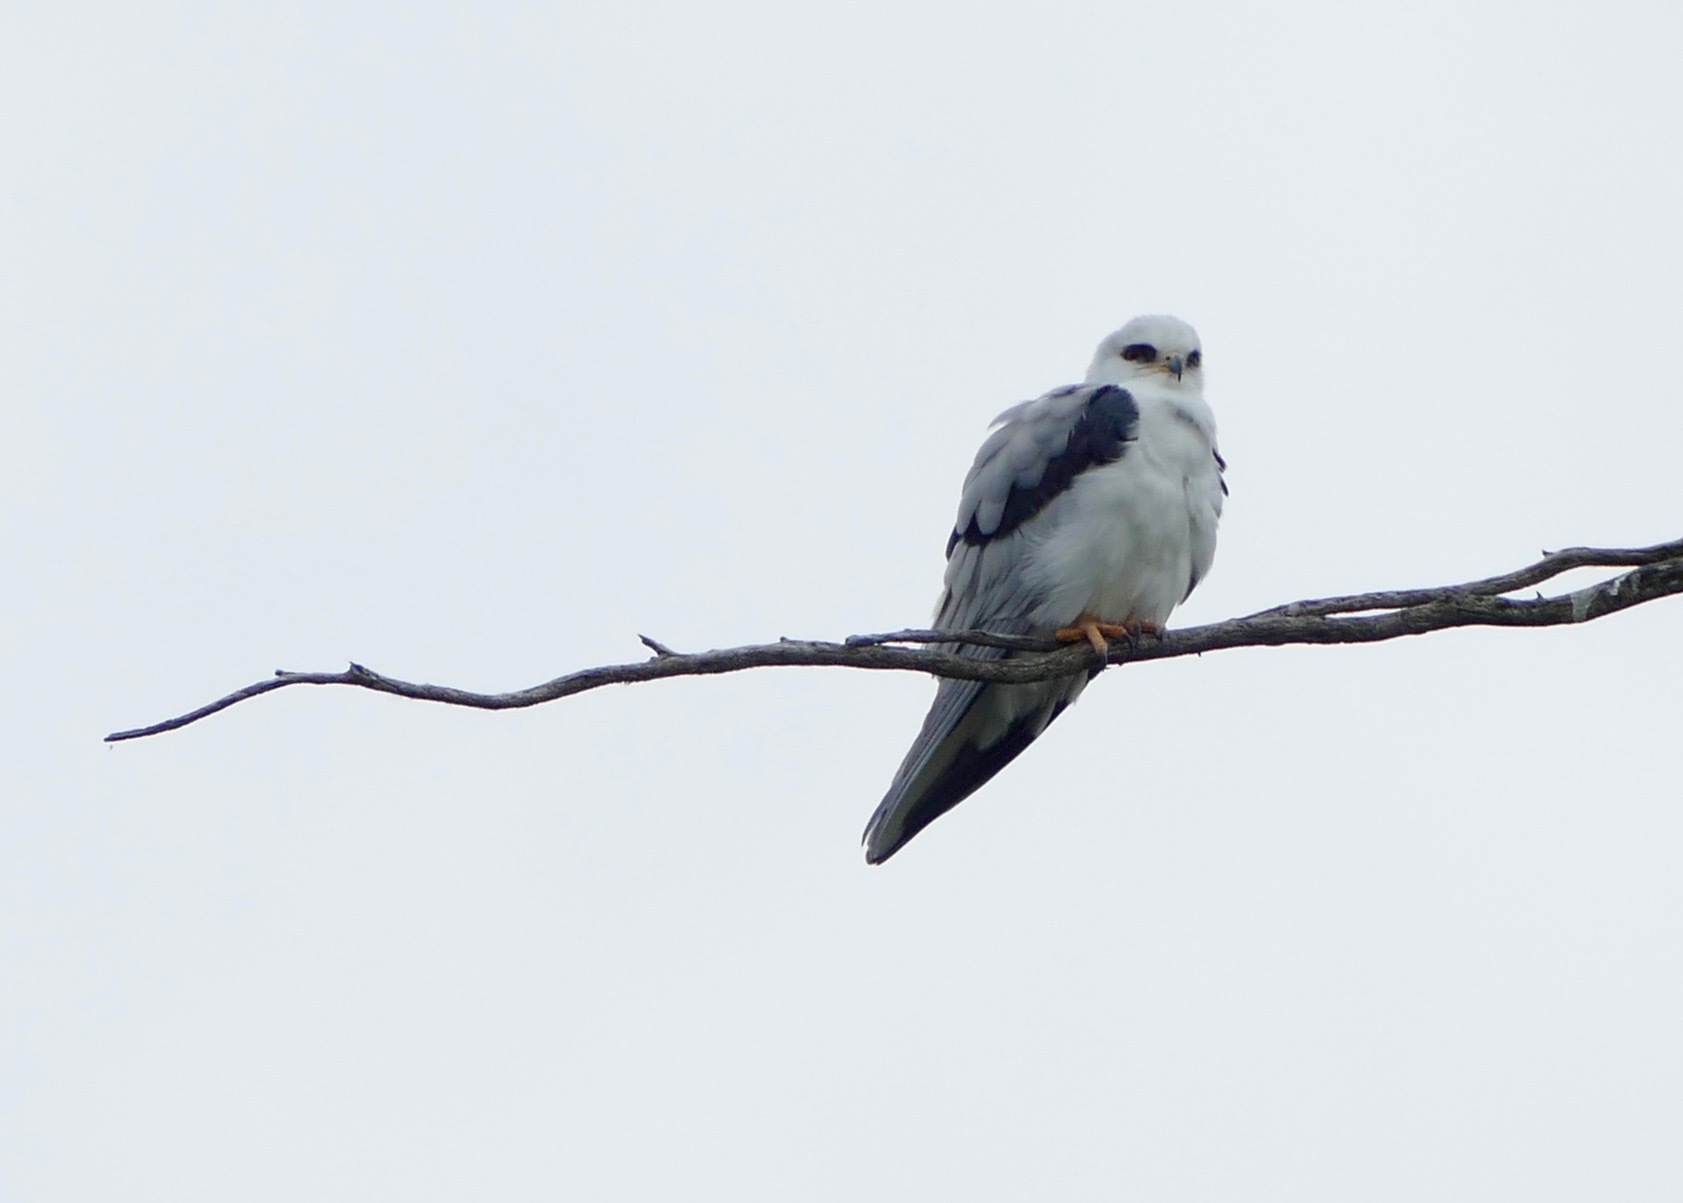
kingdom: Animalia
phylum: Chordata
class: Aves
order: Accipitriformes
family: Accipitridae
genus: Elanus
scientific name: Elanus leucurus
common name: White-tailed kite
